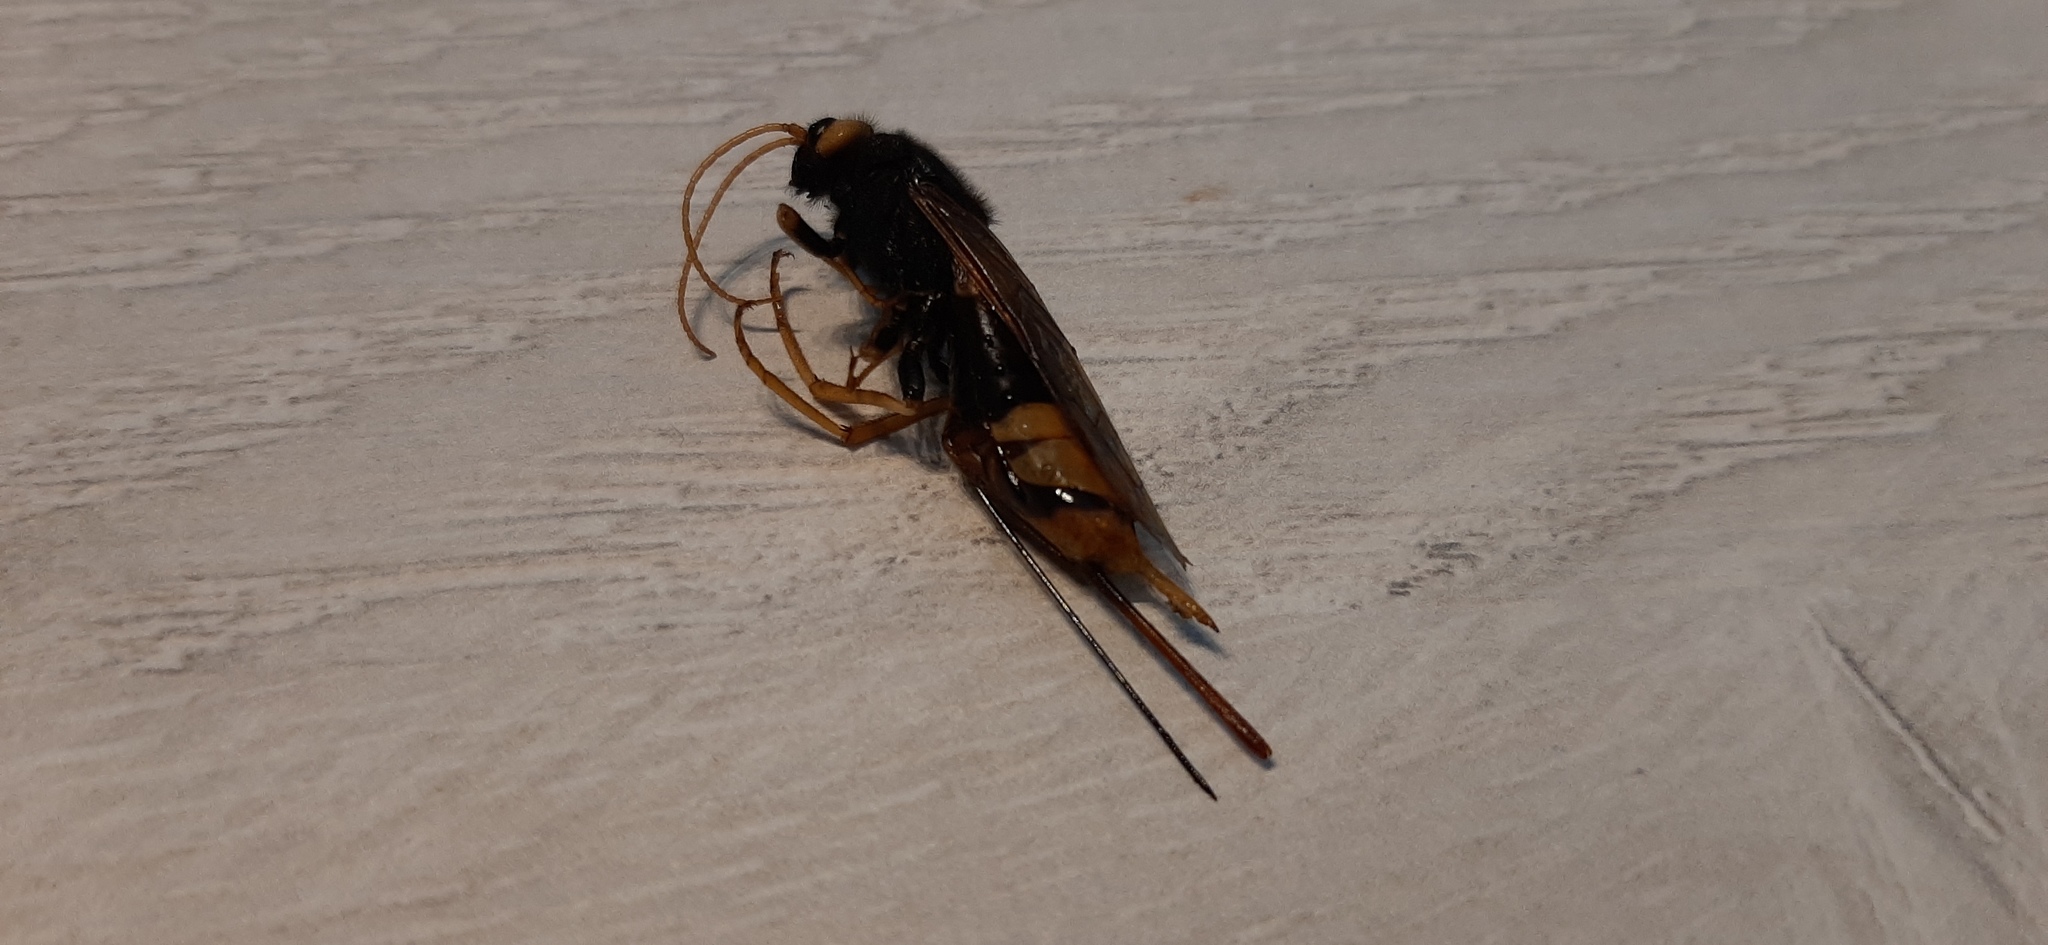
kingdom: Animalia
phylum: Arthropoda
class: Insecta
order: Hymenoptera
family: Siricidae
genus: Urocerus
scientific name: Urocerus gigas
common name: Giant woodwasp
